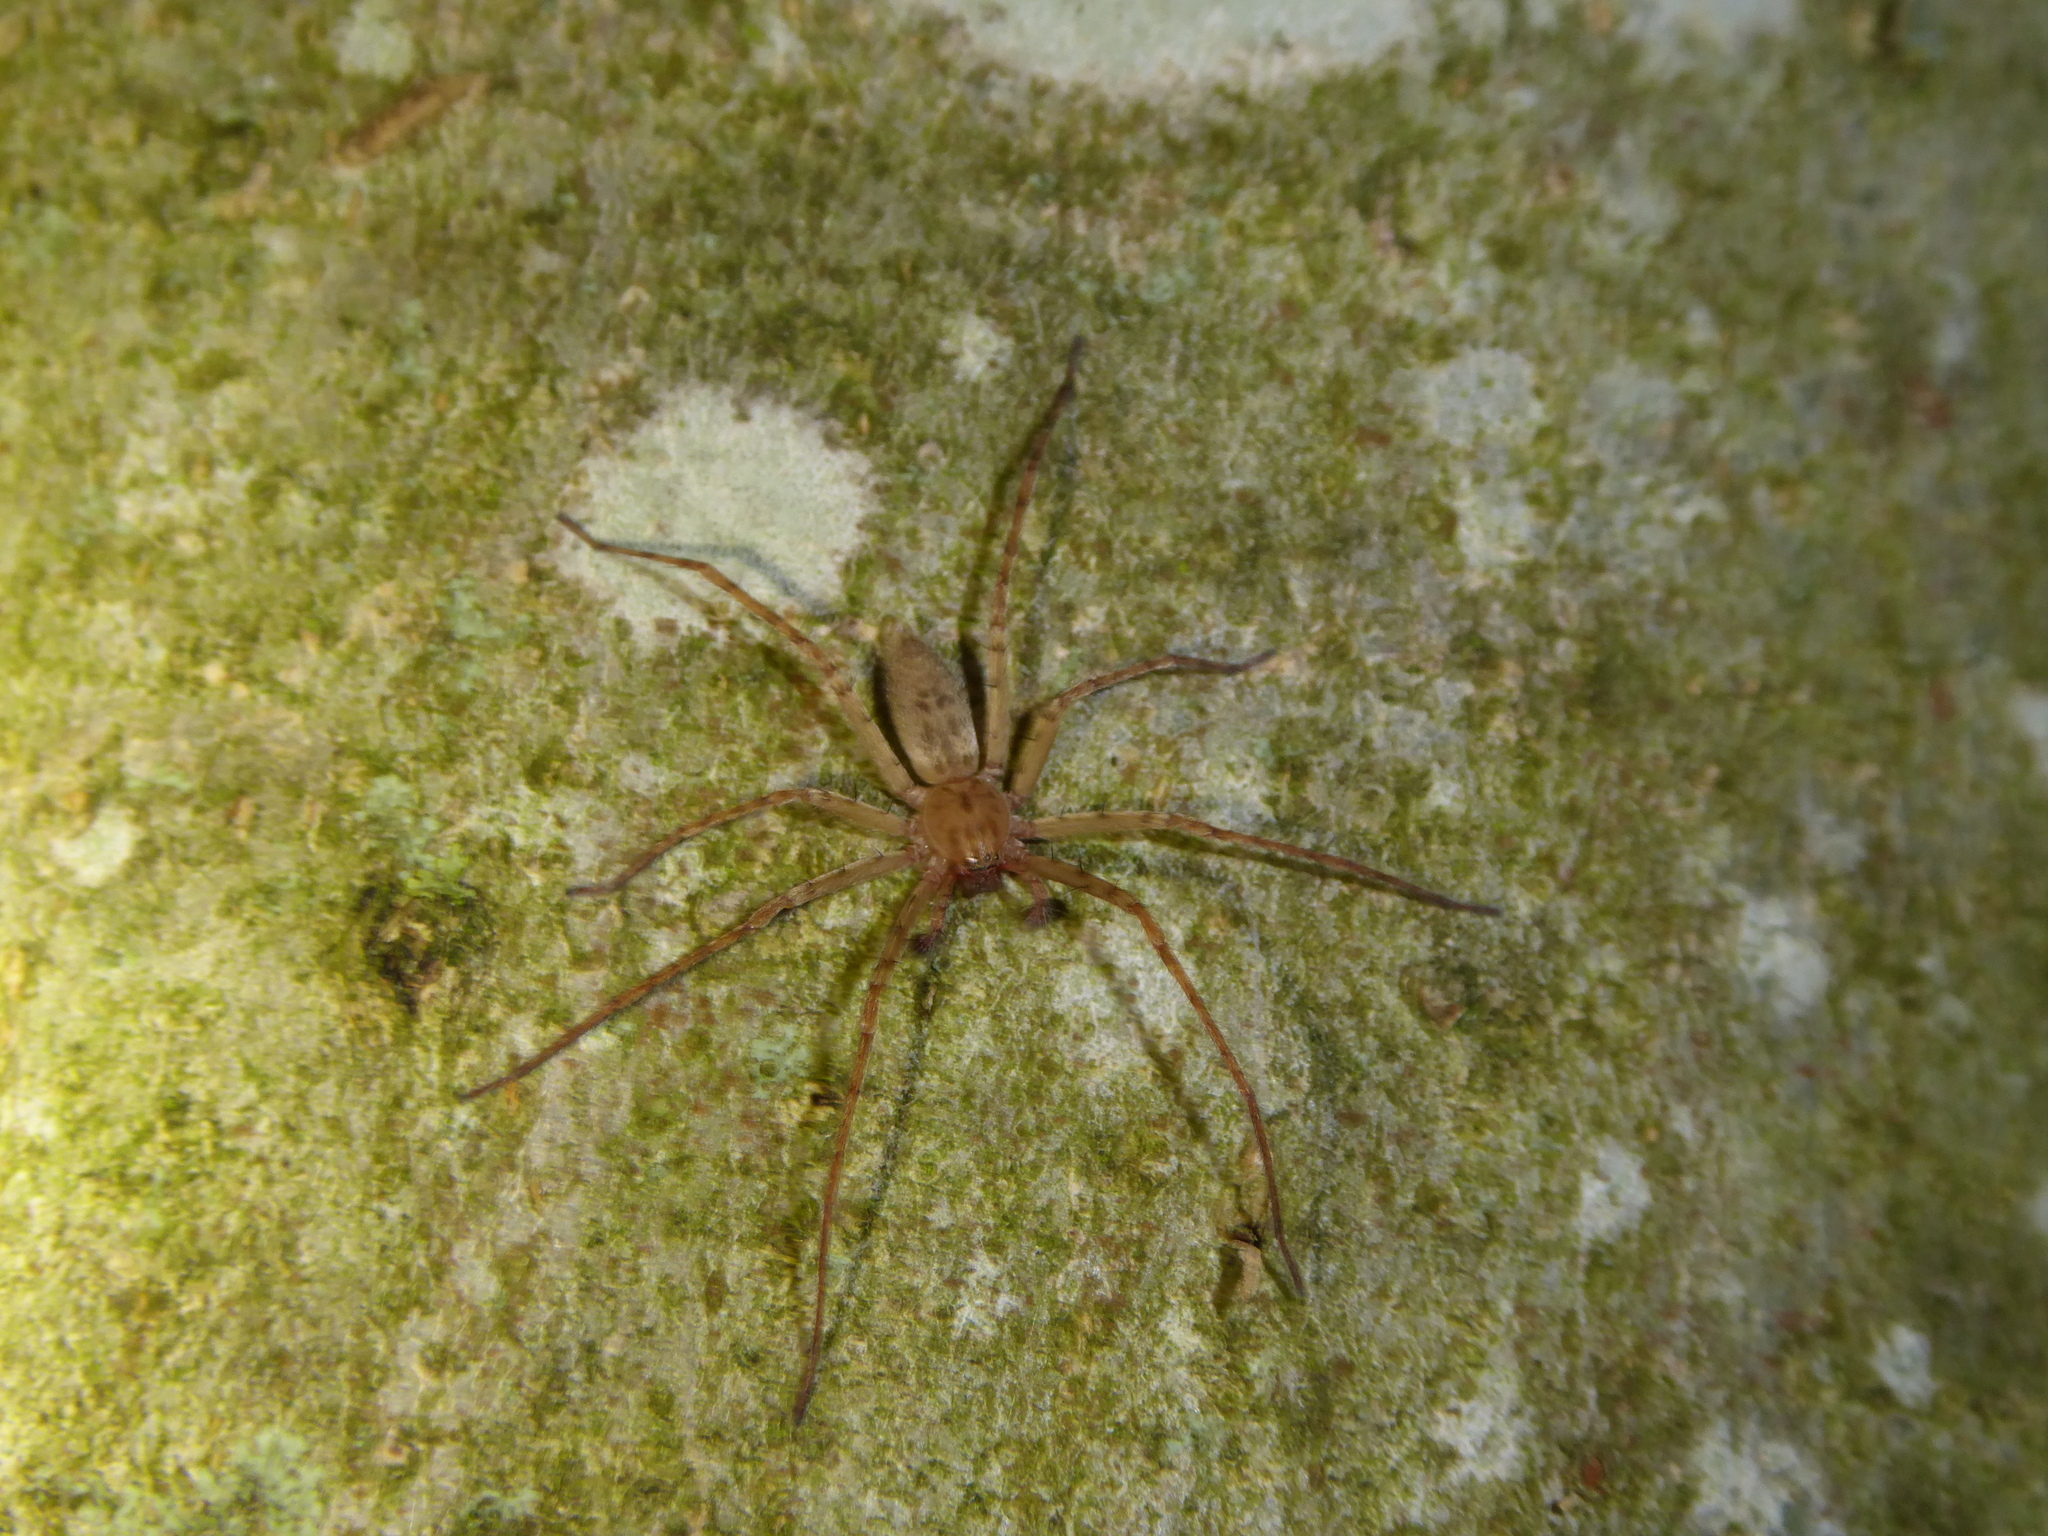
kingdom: Animalia
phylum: Arthropoda
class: Arachnida
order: Araneae
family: Anyphaenidae
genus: Anyphaena
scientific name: Anyphaena
